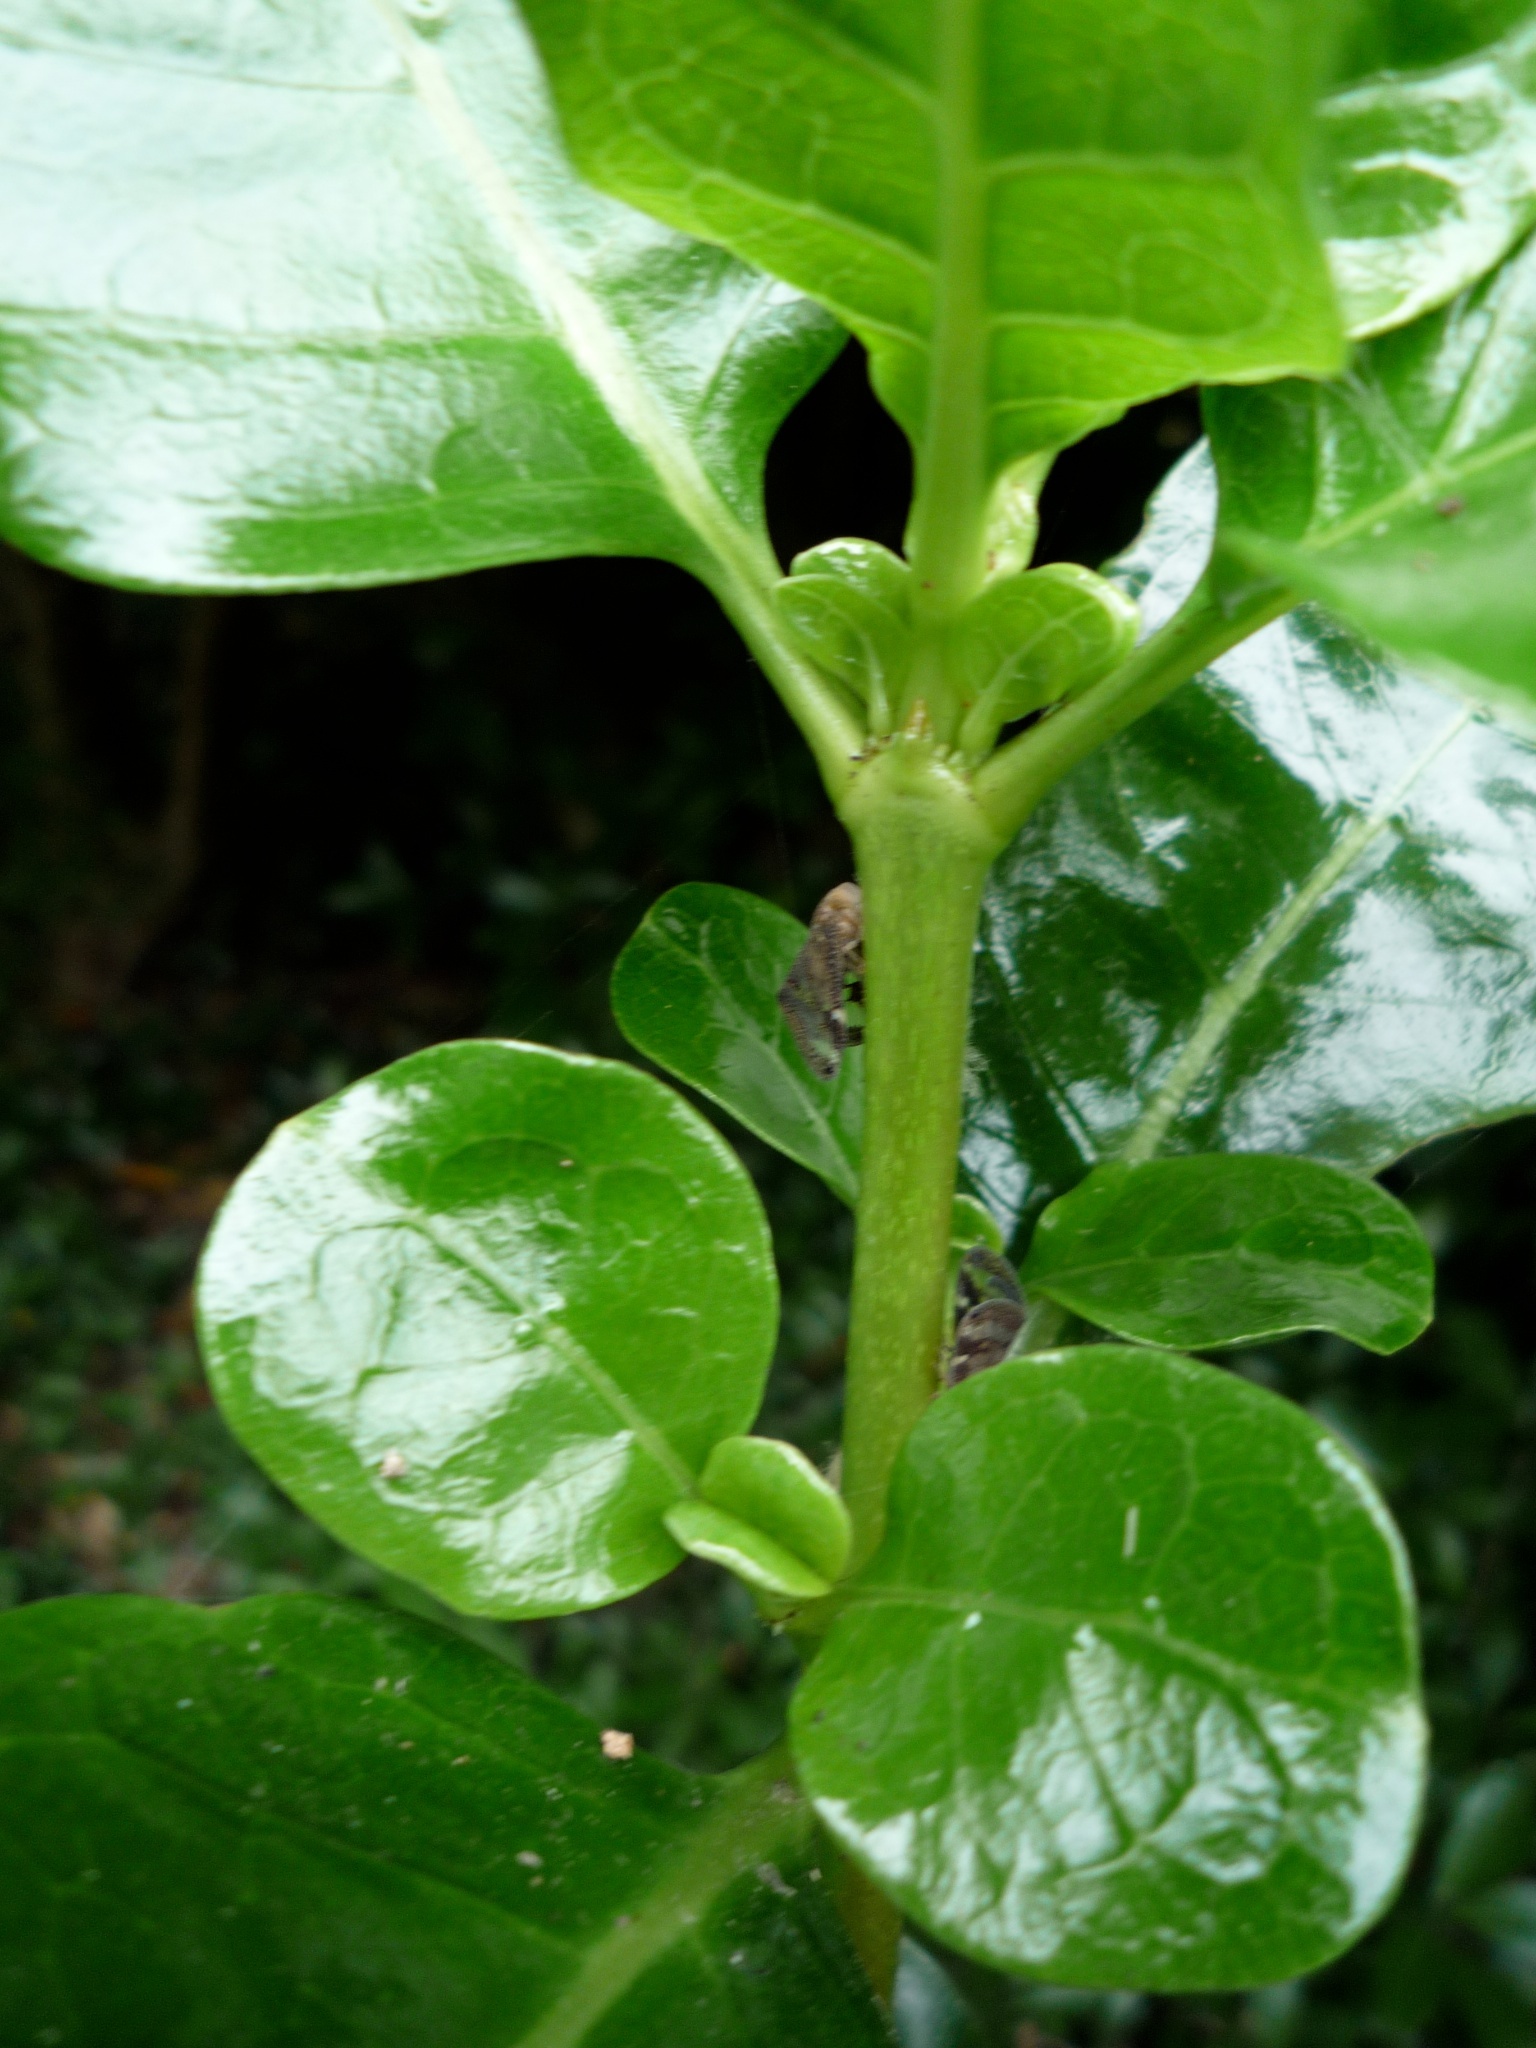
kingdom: Animalia
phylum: Arthropoda
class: Insecta
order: Hemiptera
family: Ricaniidae
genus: Scolypopa
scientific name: Scolypopa australis
